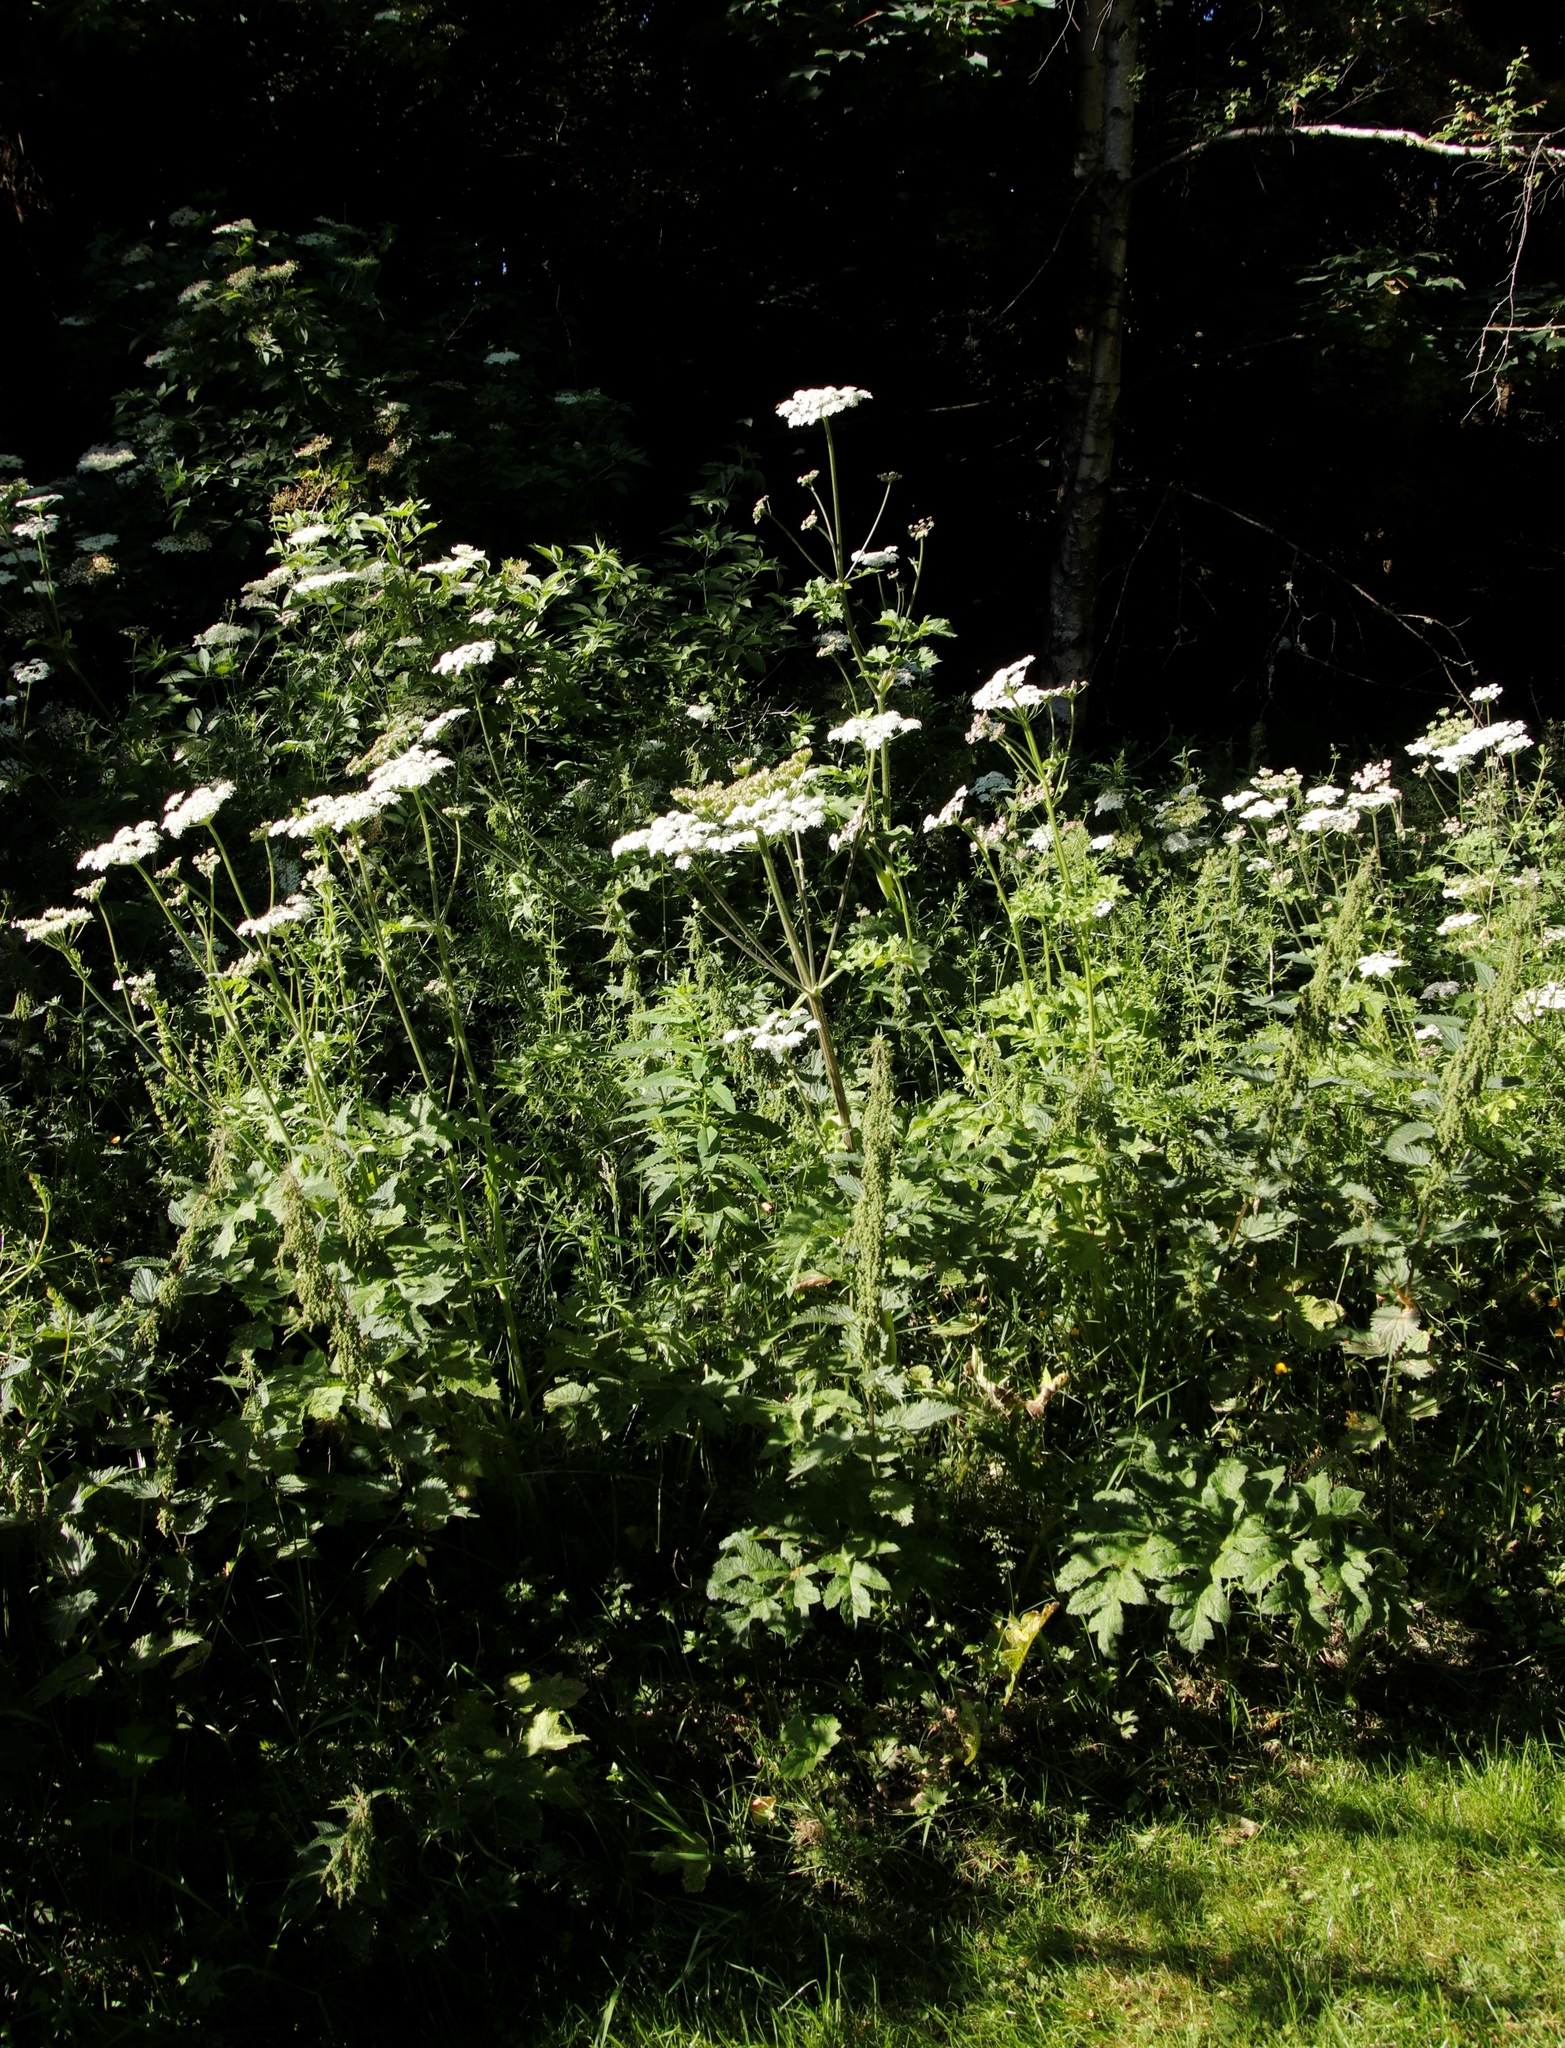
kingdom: Plantae
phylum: Tracheophyta
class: Magnoliopsida
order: Apiales
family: Apiaceae
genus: Heracleum
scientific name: Heracleum sphondylium
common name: Hogweed
